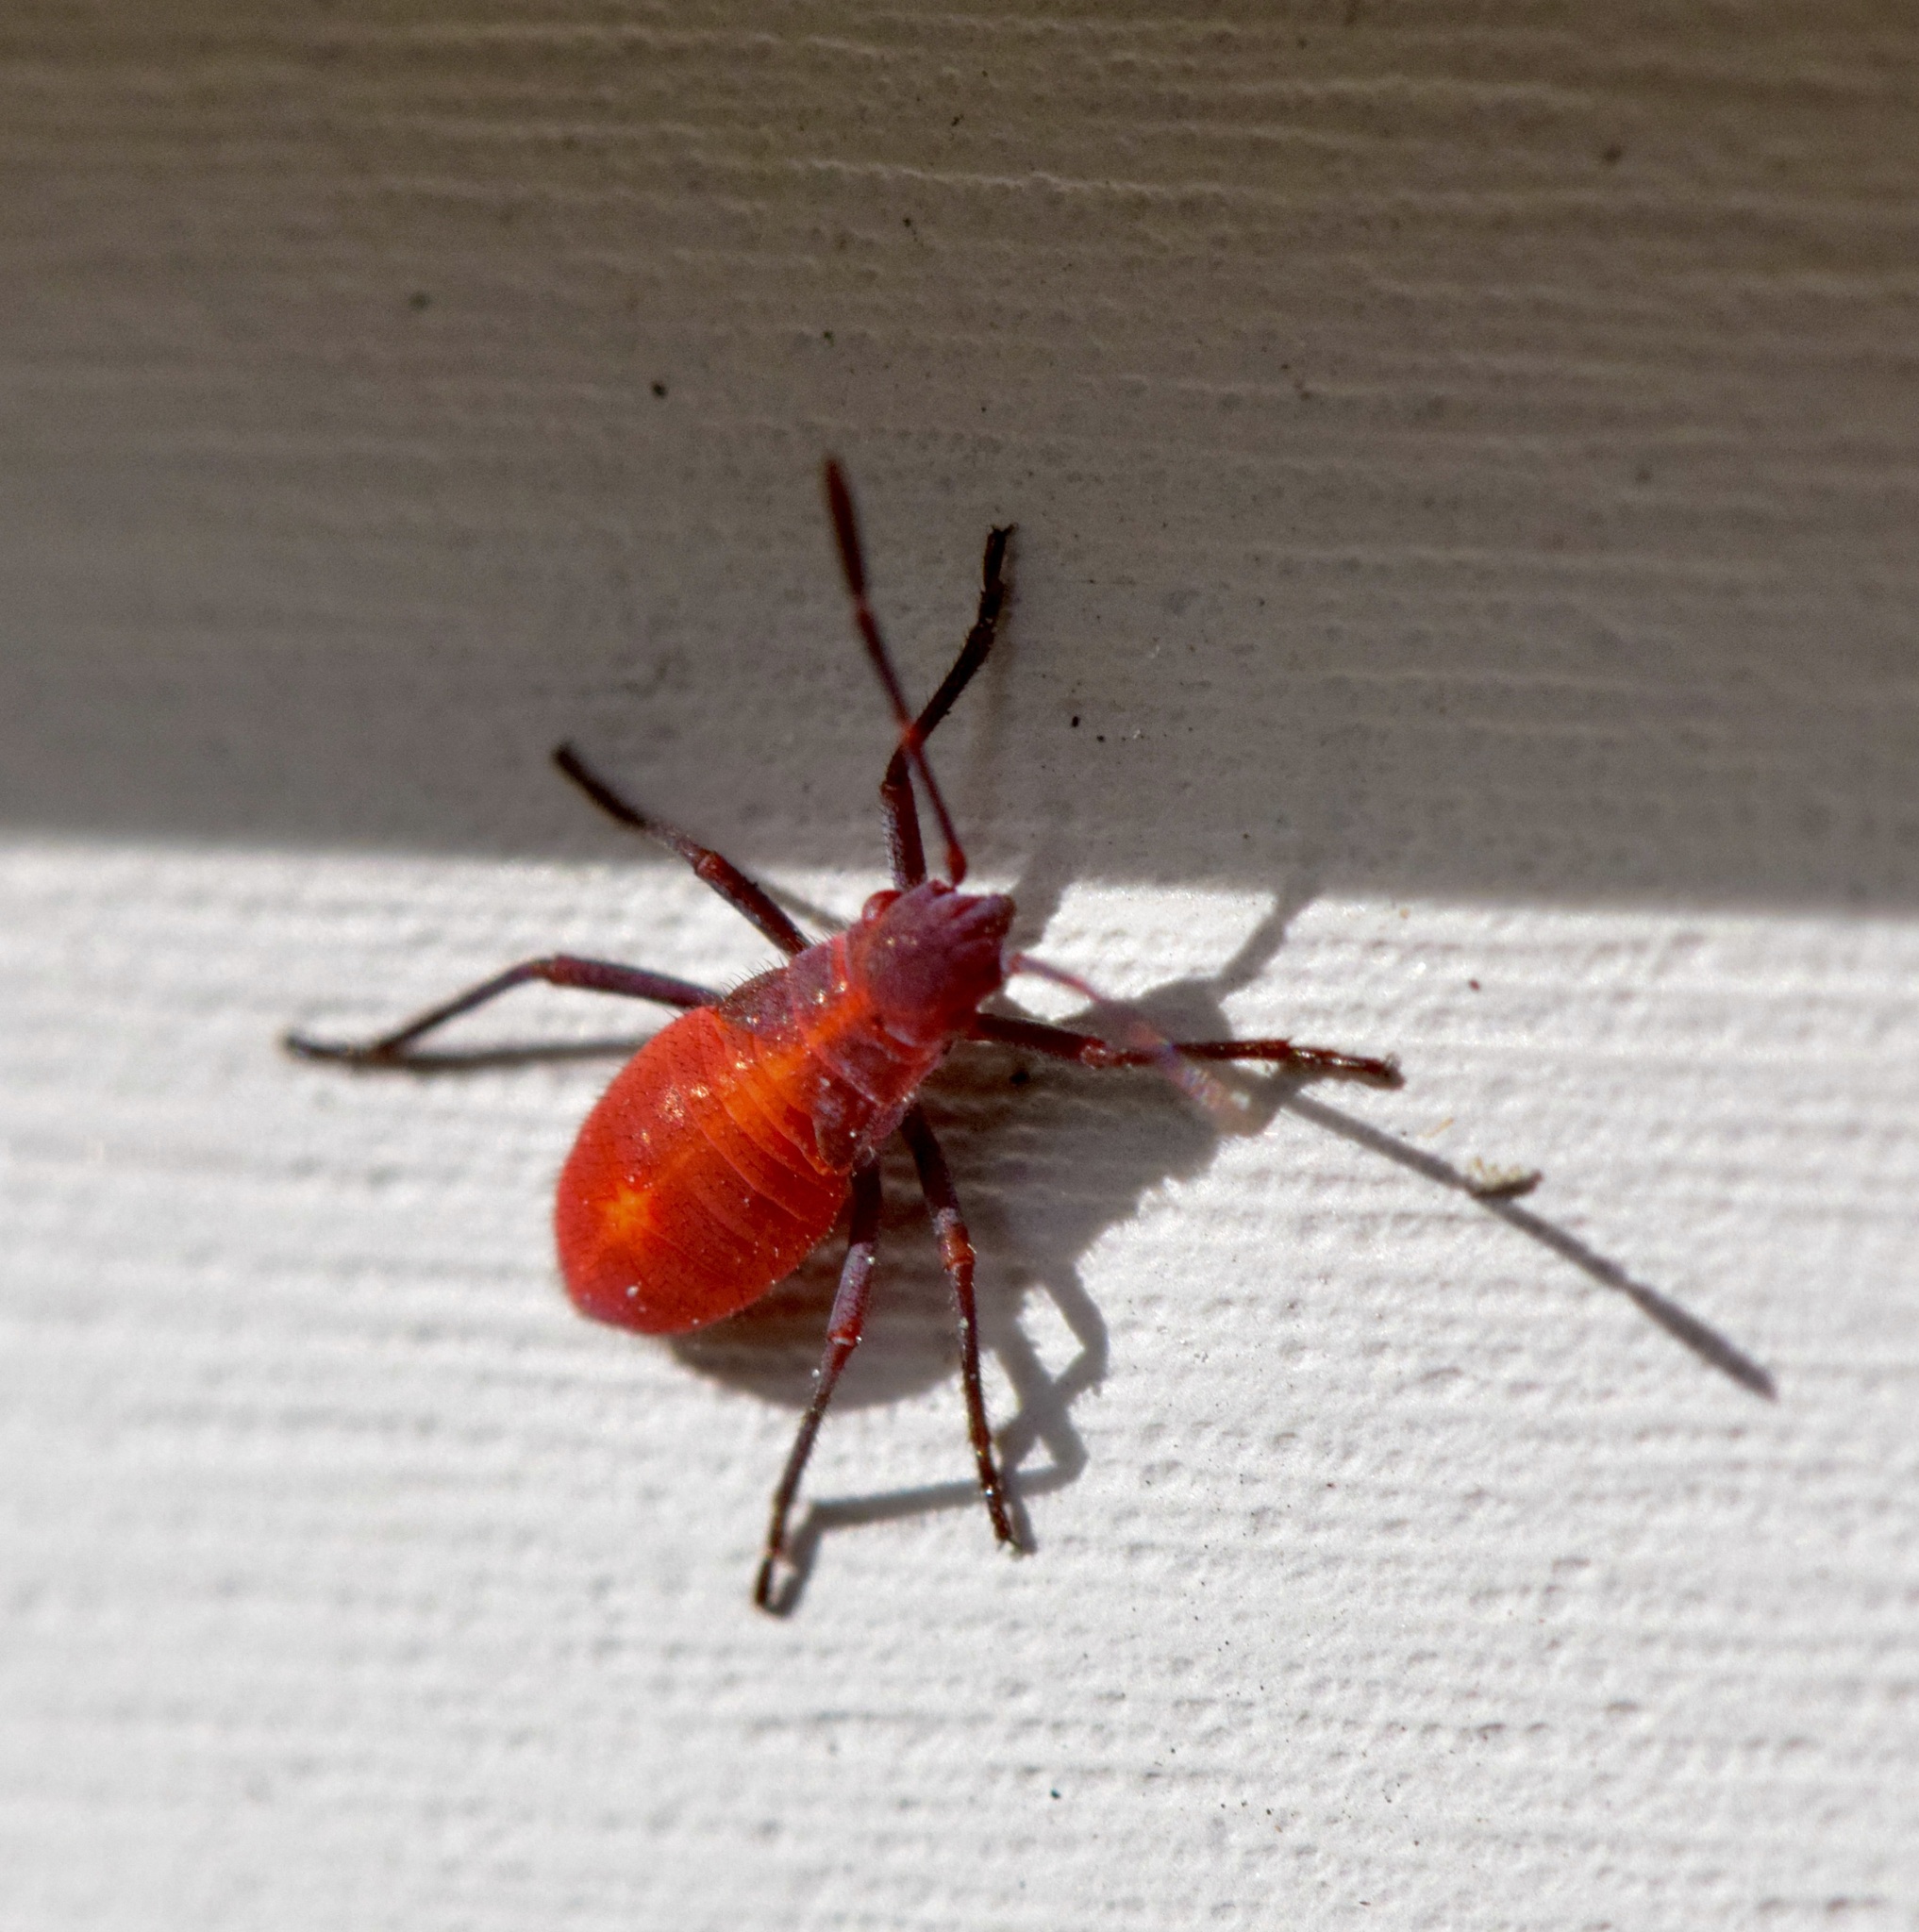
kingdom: Animalia
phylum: Arthropoda
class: Insecta
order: Hemiptera
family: Rhopalidae
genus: Boisea
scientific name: Boisea trivittata
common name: Boxelder bug
